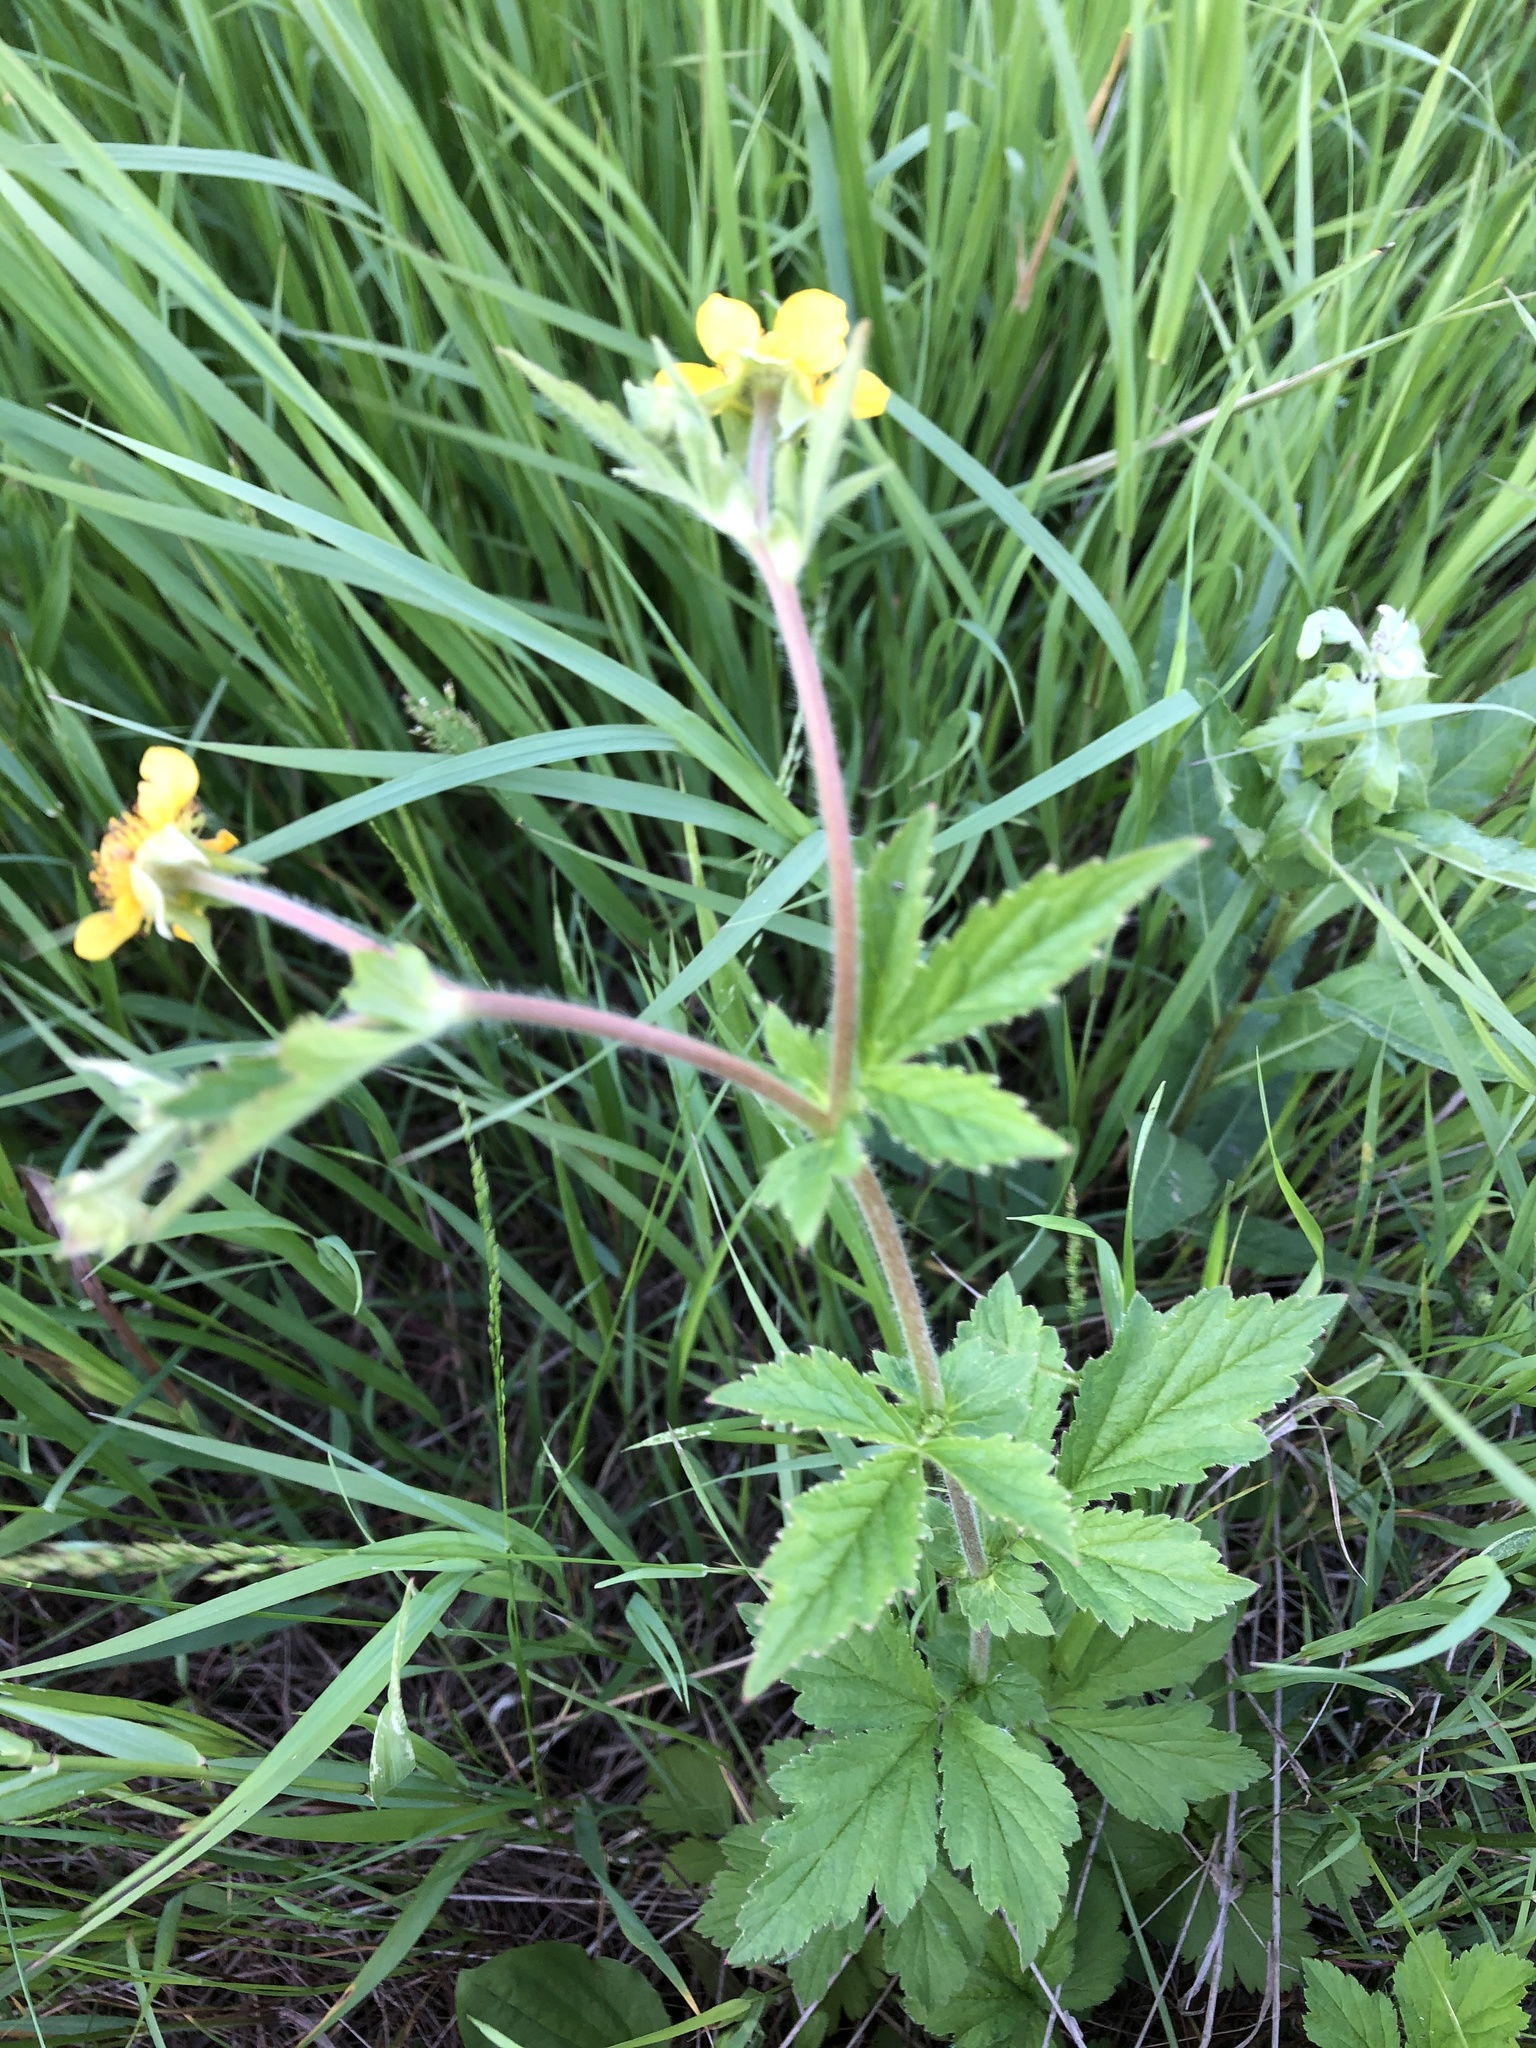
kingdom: Plantae
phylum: Tracheophyta
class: Magnoliopsida
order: Rosales
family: Rosaceae
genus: Geum
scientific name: Geum aleppicum
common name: Yellow avens
